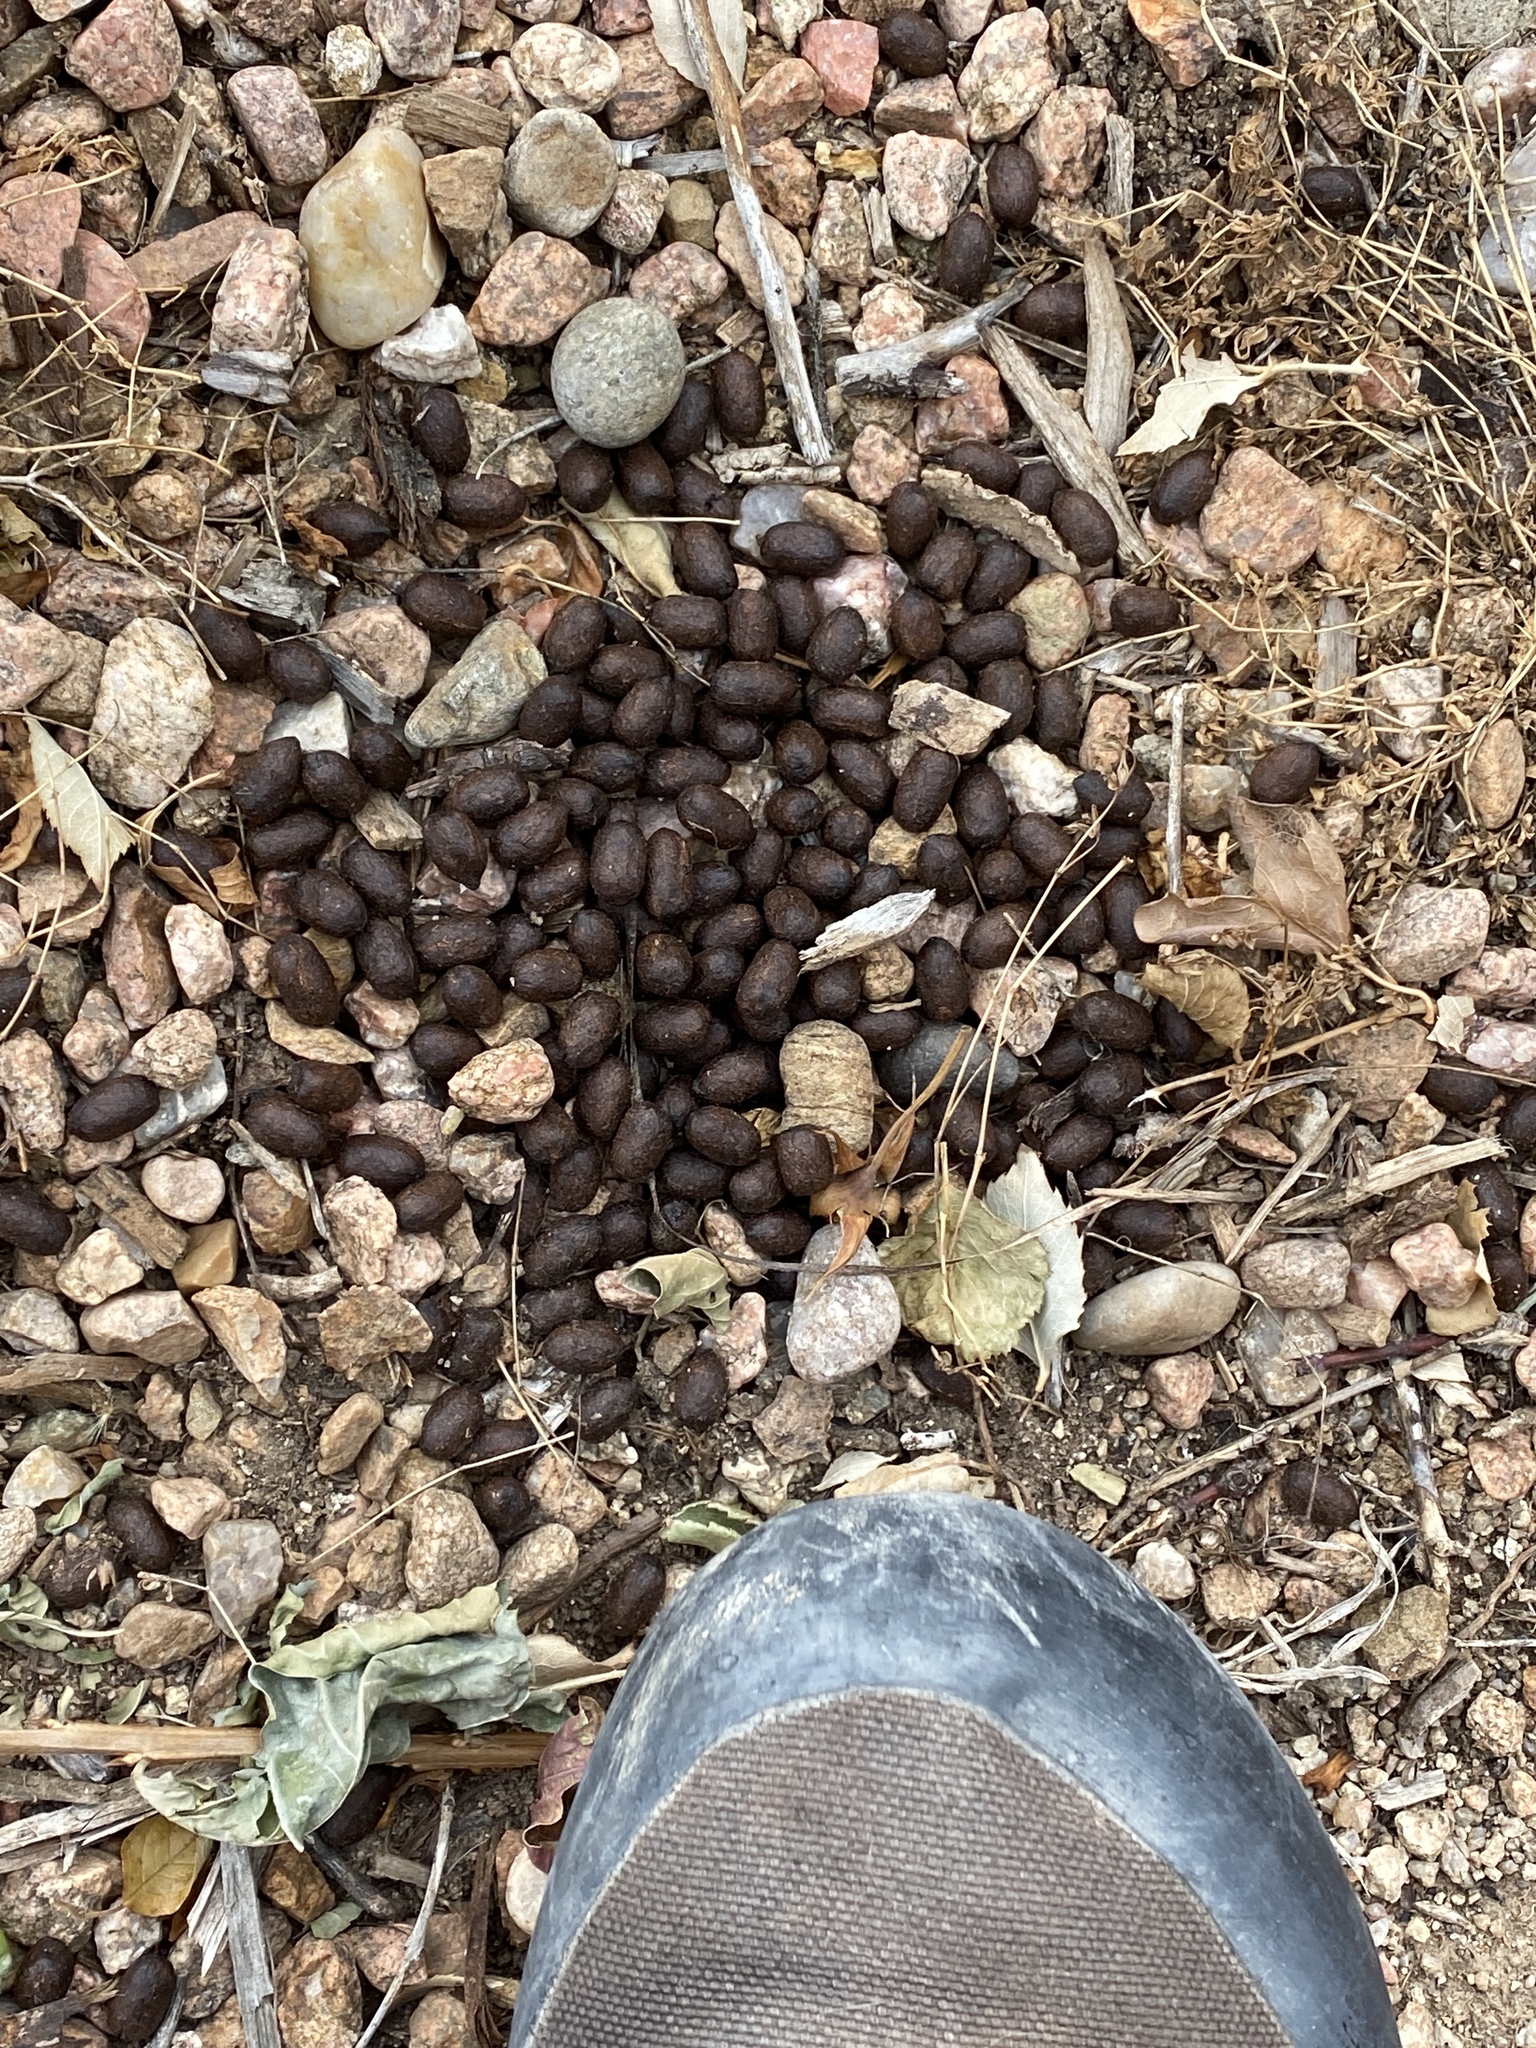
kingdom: Animalia
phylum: Chordata
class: Mammalia
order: Artiodactyla
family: Cervidae
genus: Odocoileus
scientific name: Odocoileus hemionus
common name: Mule deer
